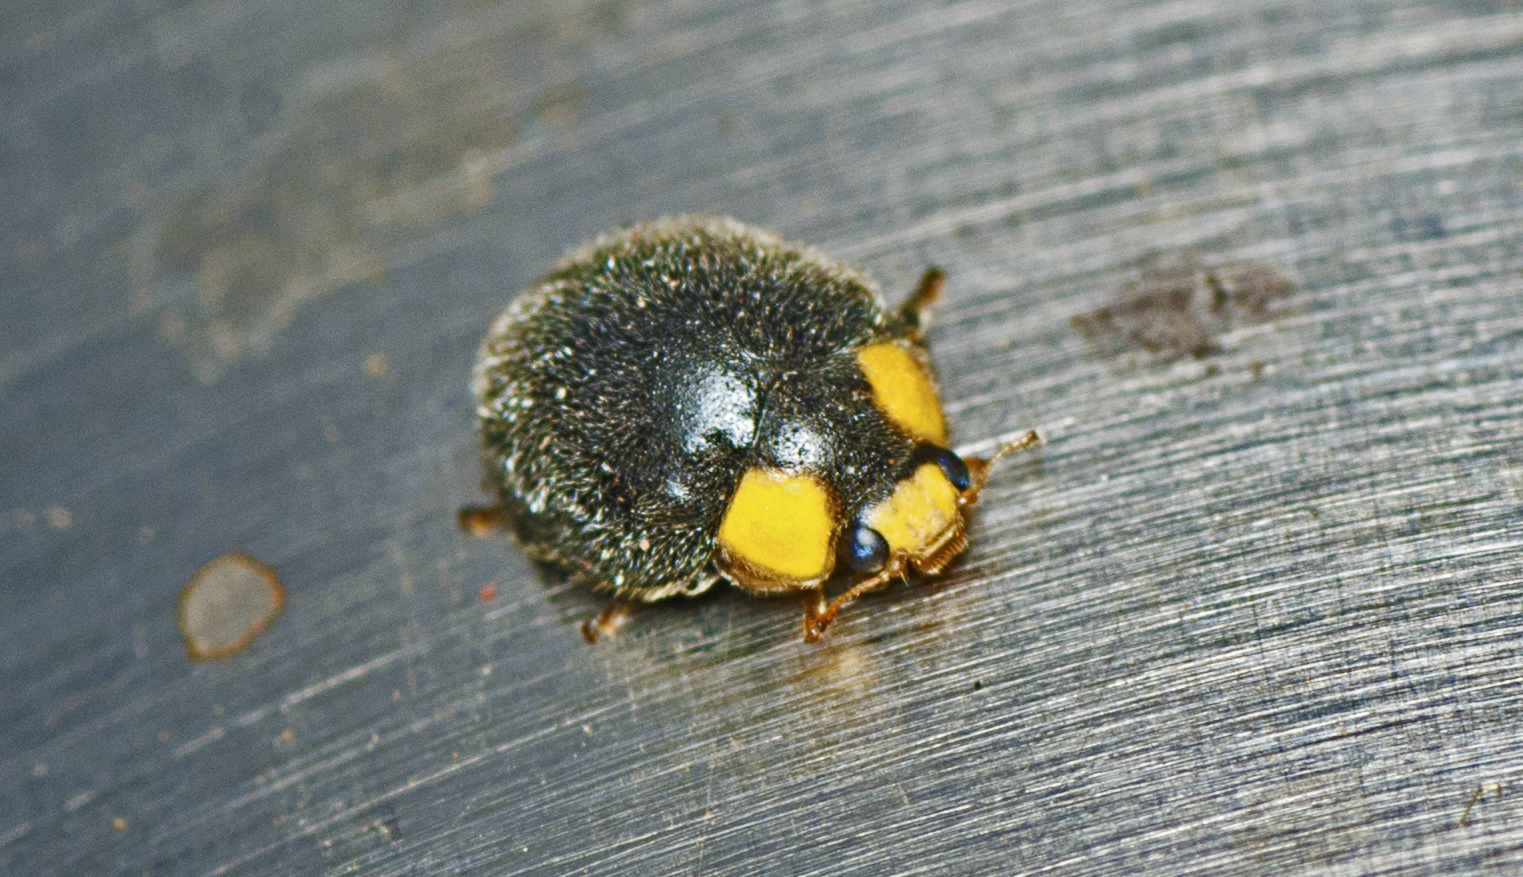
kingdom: Animalia
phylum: Arthropoda
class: Insecta
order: Coleoptera
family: Coccinellidae
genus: Scymnodes
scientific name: Scymnodes lividigaster
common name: Yellowshouldered lady beetle
